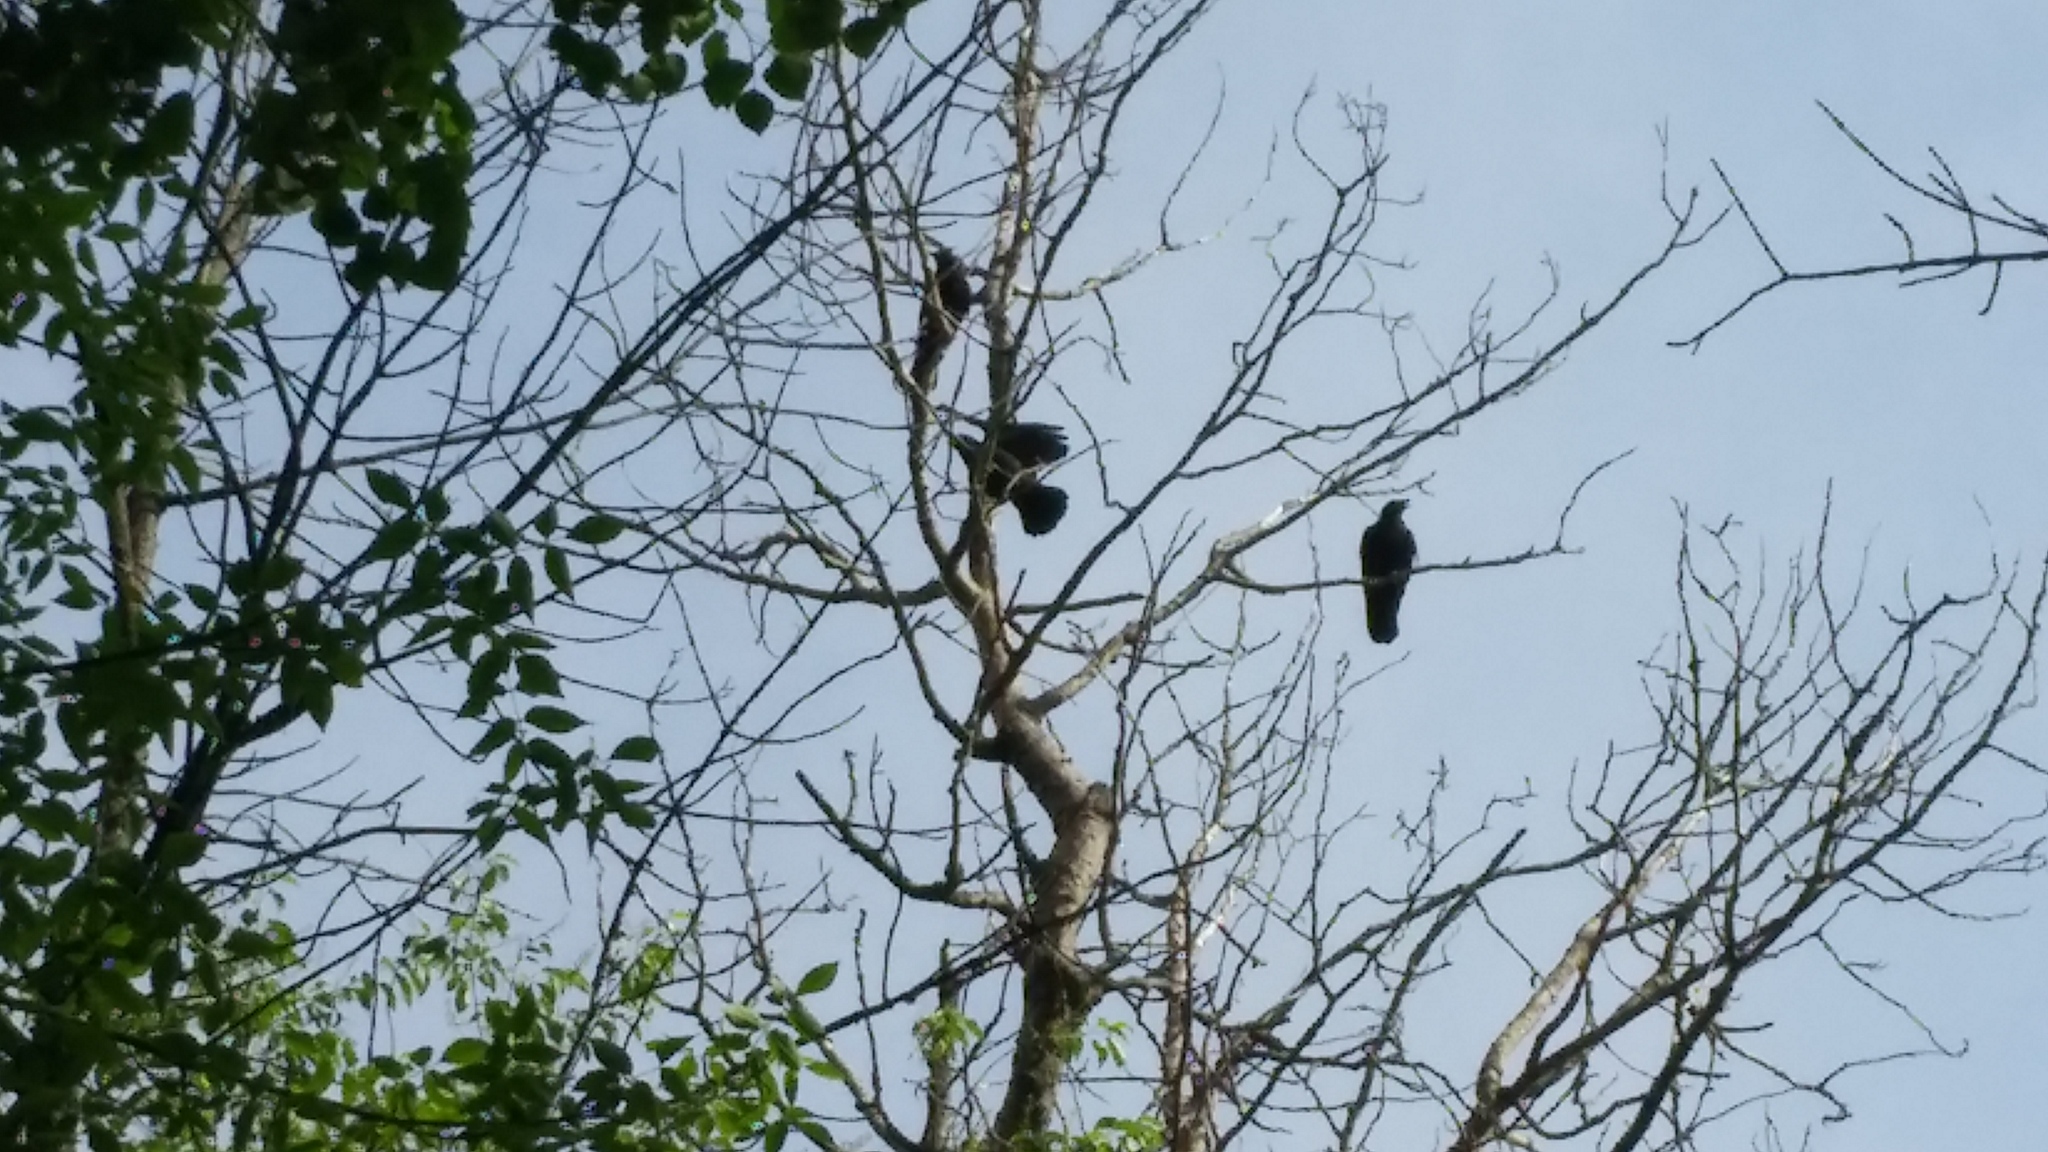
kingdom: Animalia
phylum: Chordata
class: Aves
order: Passeriformes
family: Corvidae
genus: Corvus
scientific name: Corvus brachyrhynchos
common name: American crow
